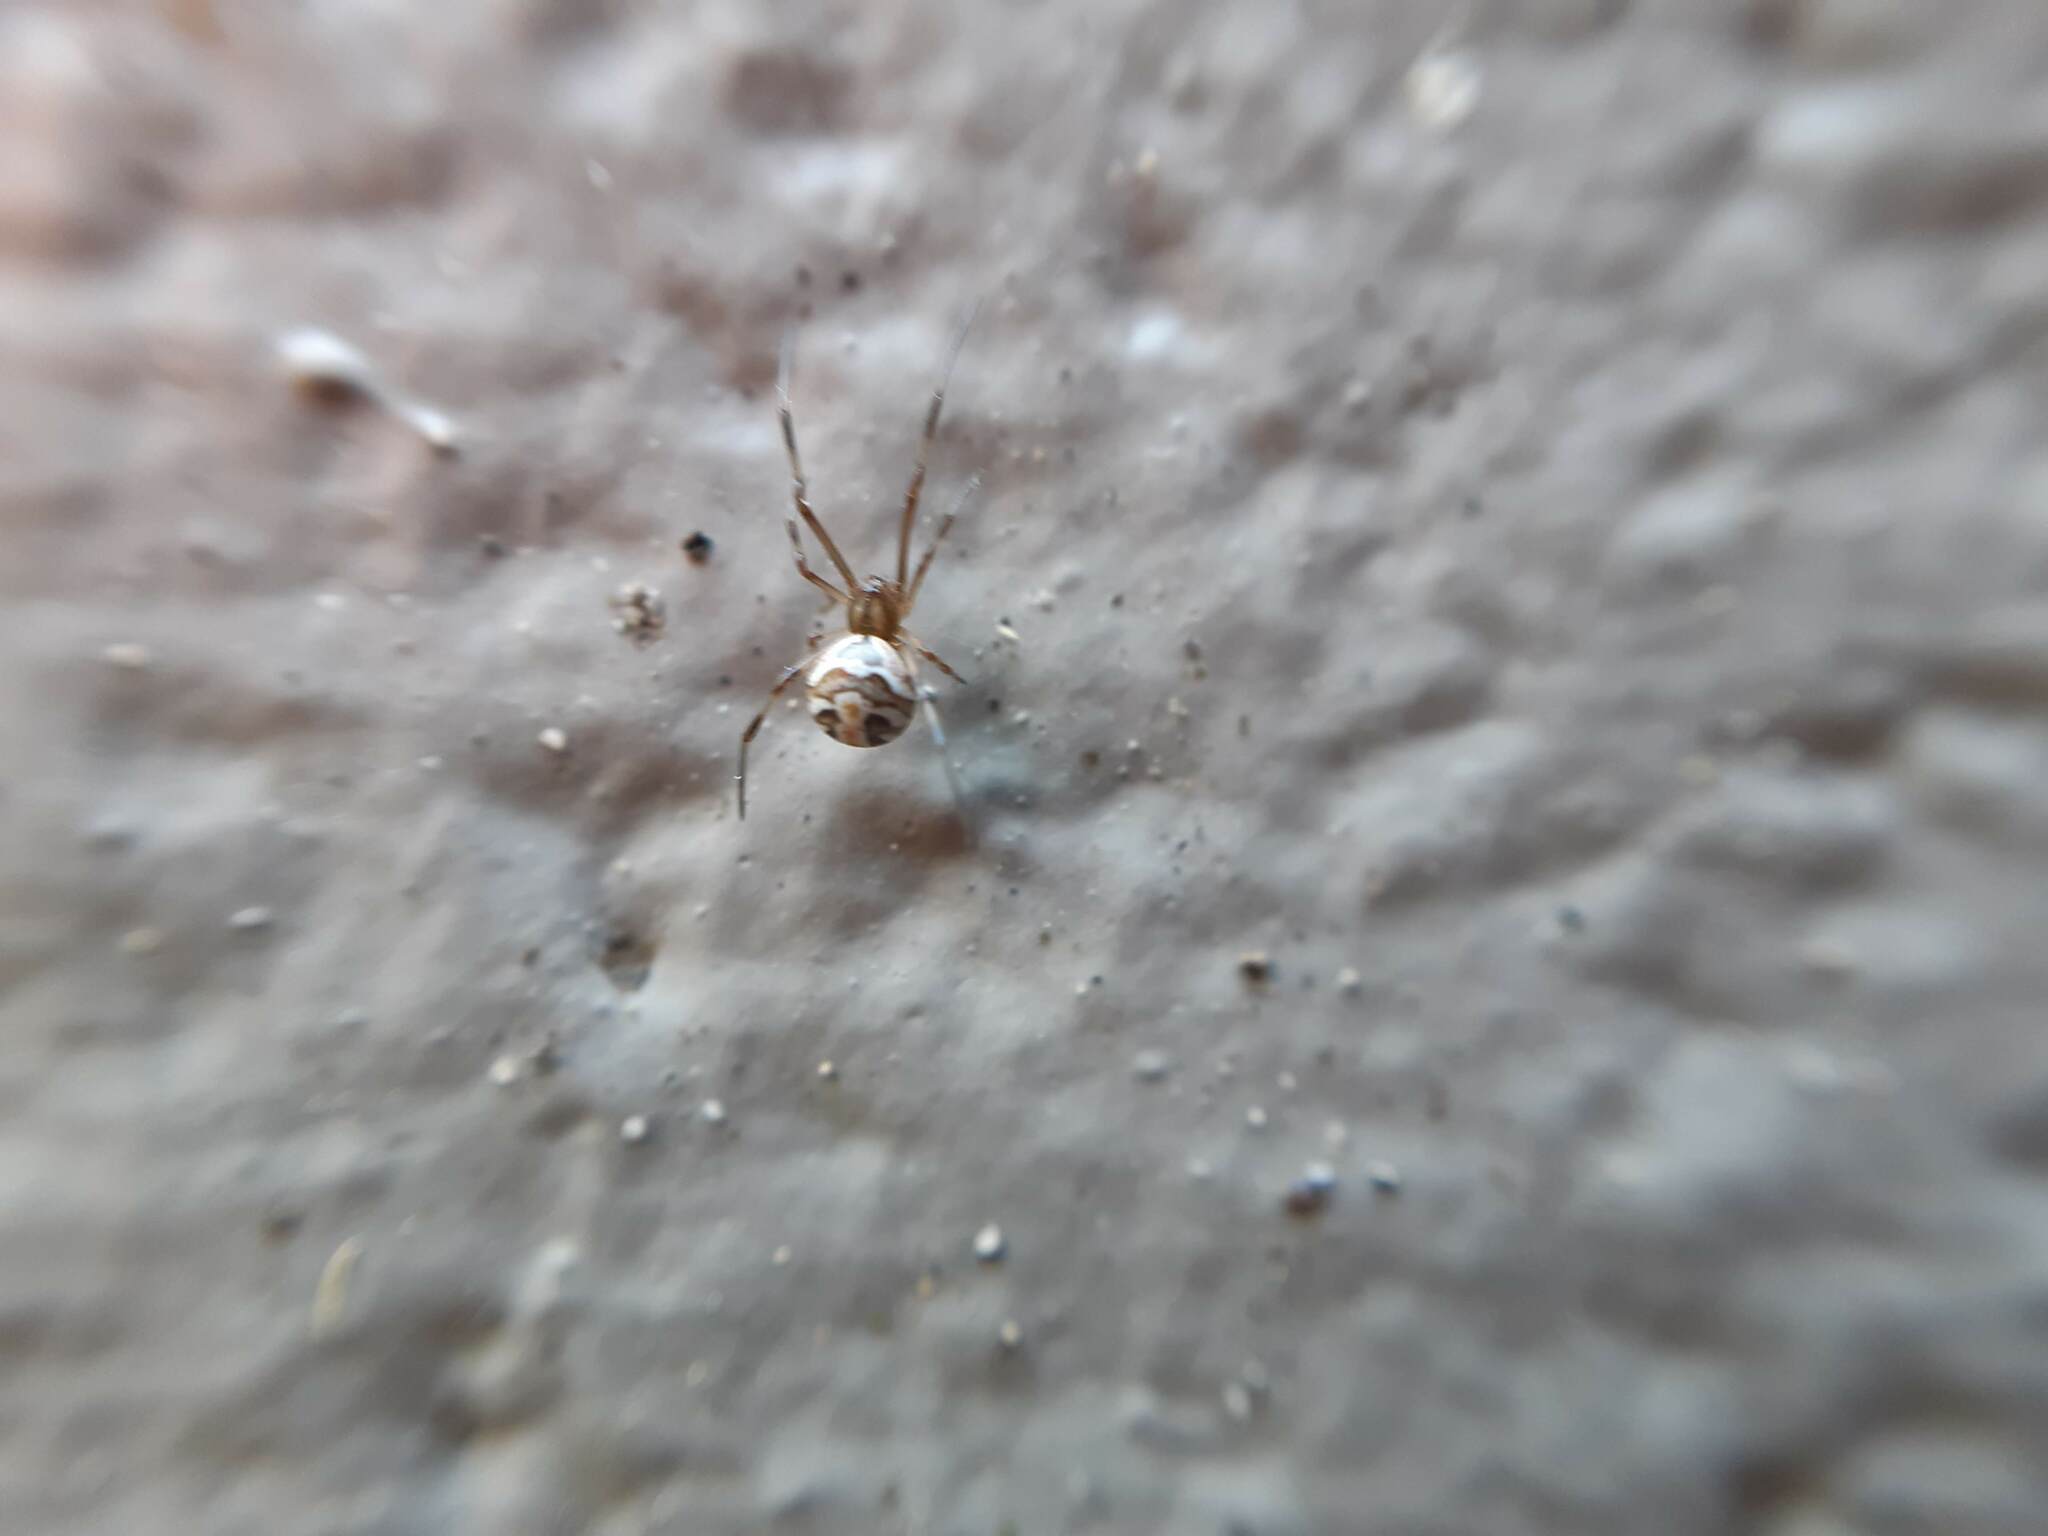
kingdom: Animalia
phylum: Arthropoda
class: Arachnida
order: Araneae
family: Theridiidae
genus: Latrodectus
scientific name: Latrodectus hasselti
